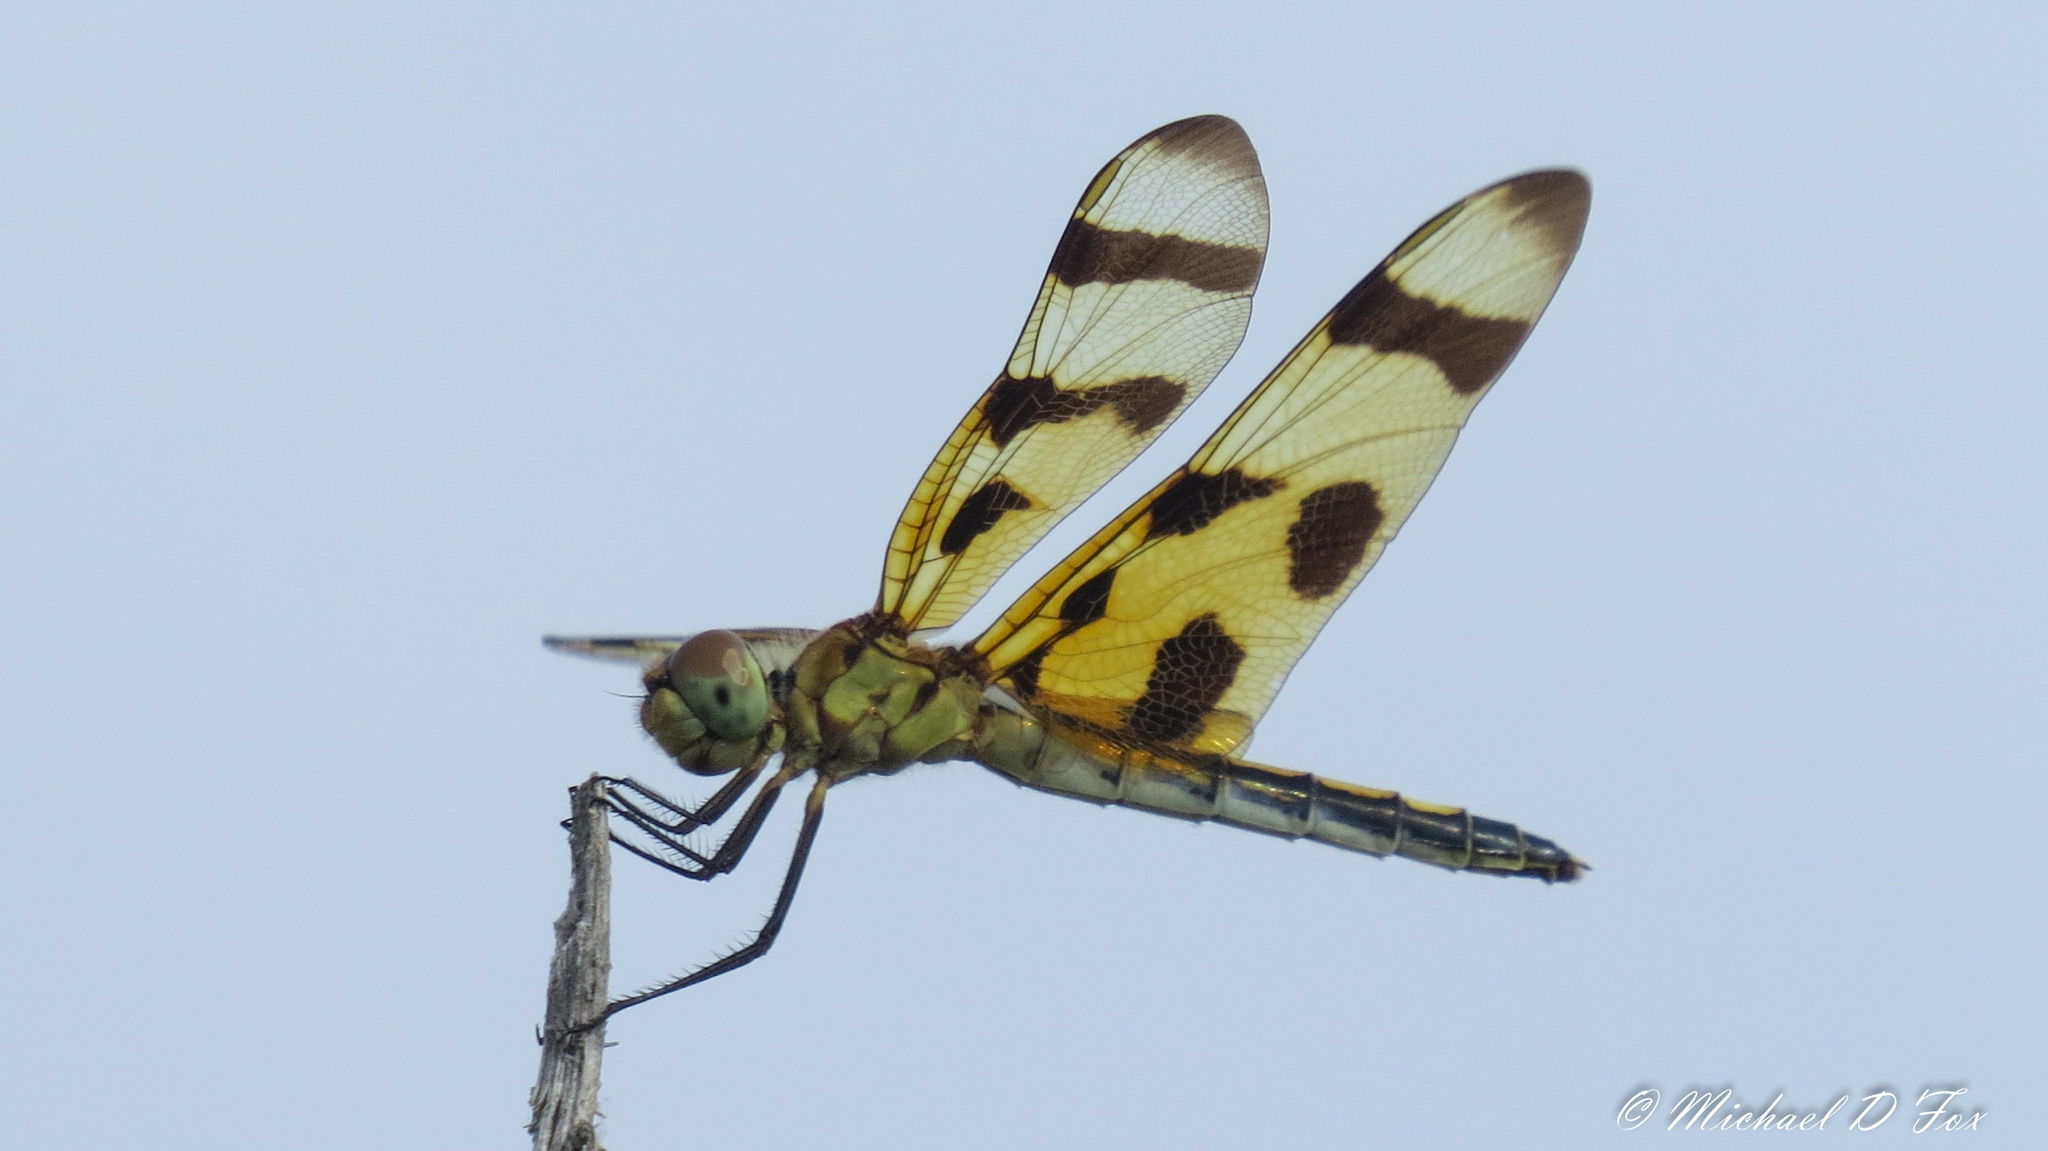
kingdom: Animalia
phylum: Arthropoda
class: Insecta
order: Odonata
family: Libellulidae
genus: Celithemis
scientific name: Celithemis eponina
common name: Halloween pennant
